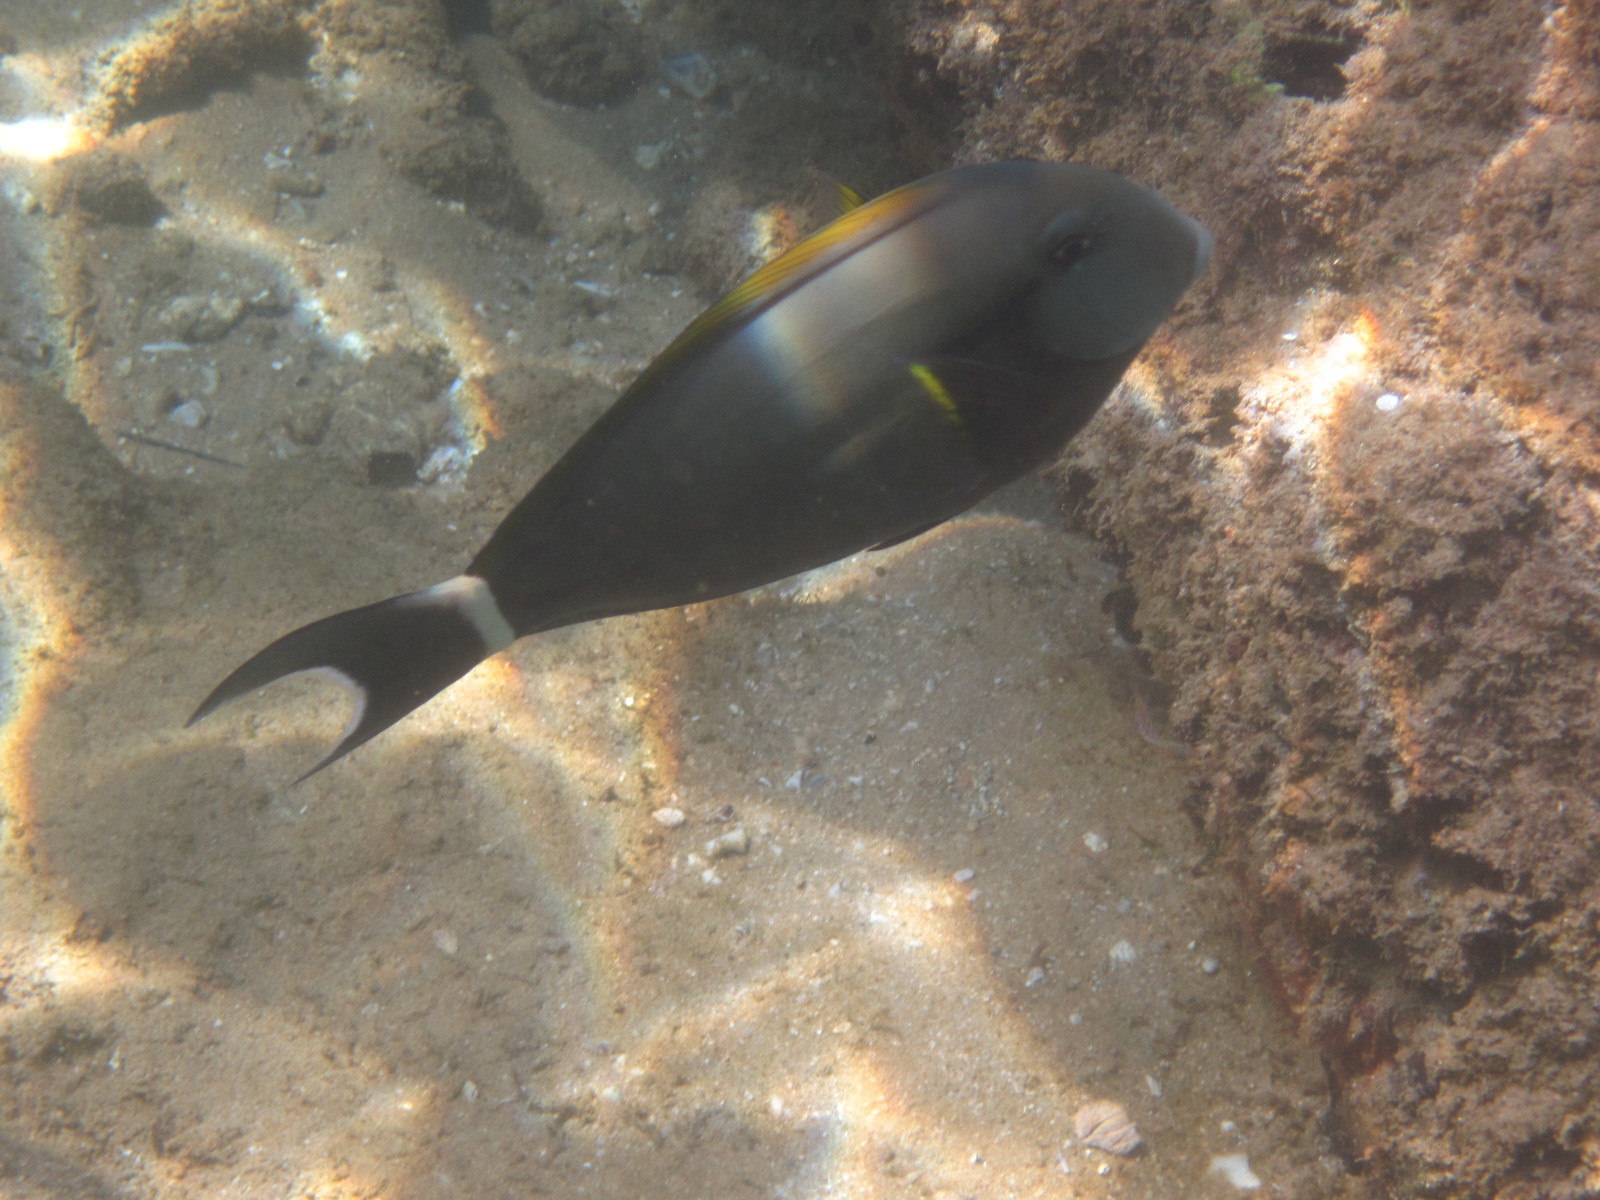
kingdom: Animalia
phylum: Chordata
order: Perciformes
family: Acanthuridae
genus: Acanthurus
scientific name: Acanthurus nigricauda
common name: Black-barred surgeonfish
